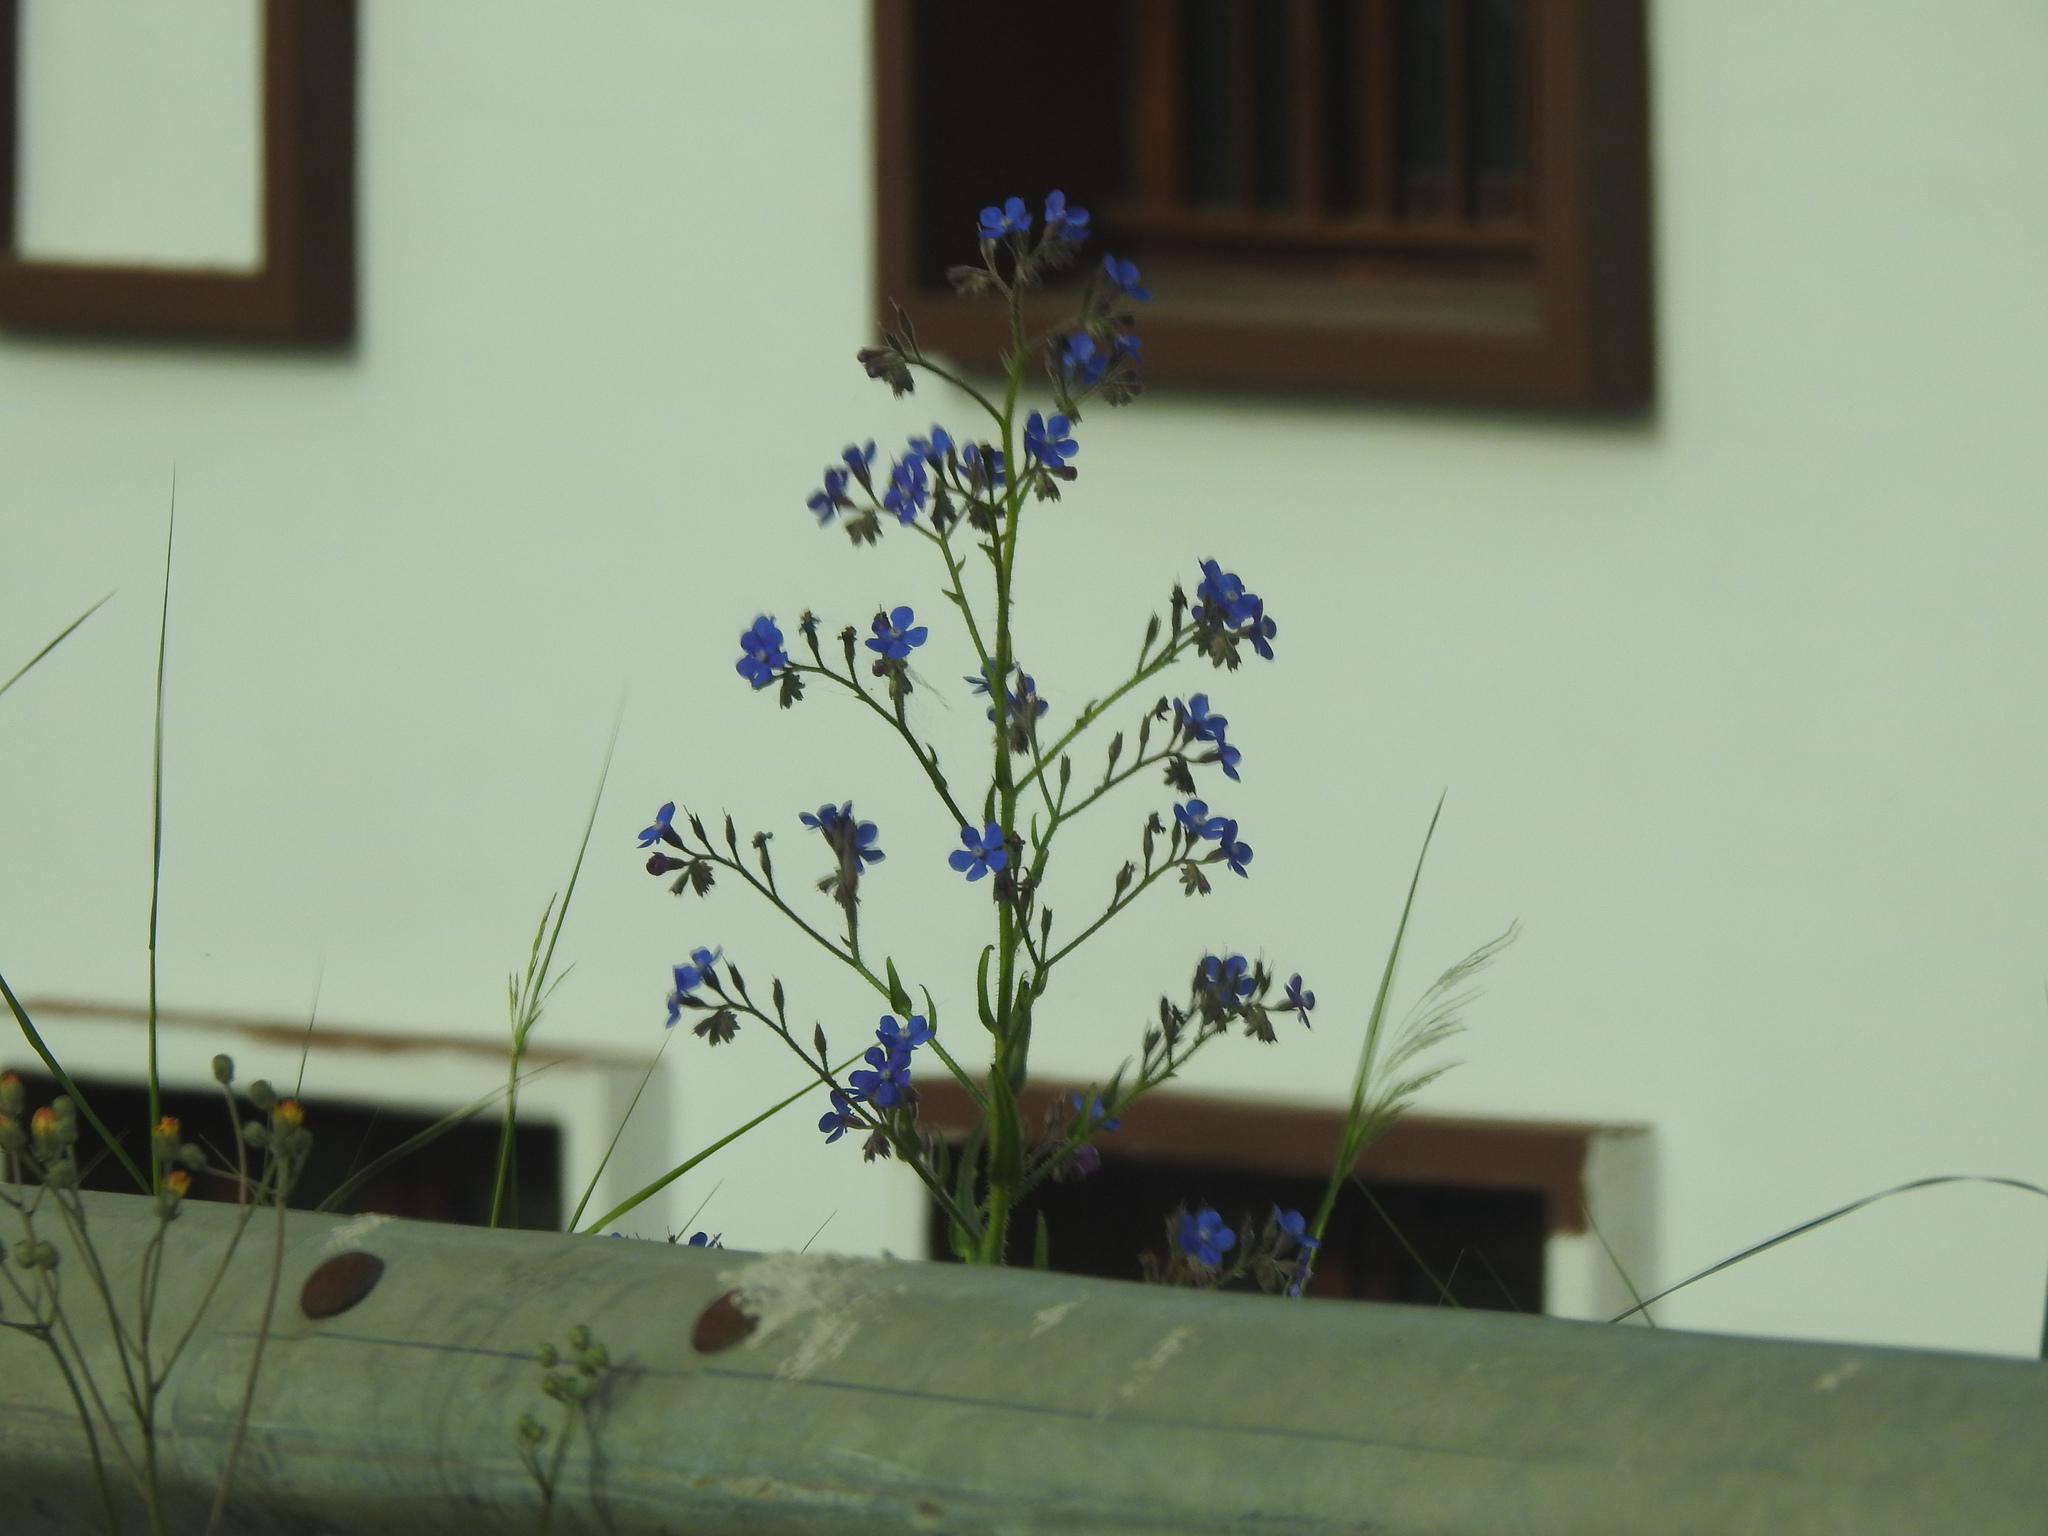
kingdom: Plantae
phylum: Tracheophyta
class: Magnoliopsida
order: Boraginales
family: Boraginaceae
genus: Anchusa
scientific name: Anchusa azurea
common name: Garden anchusa
